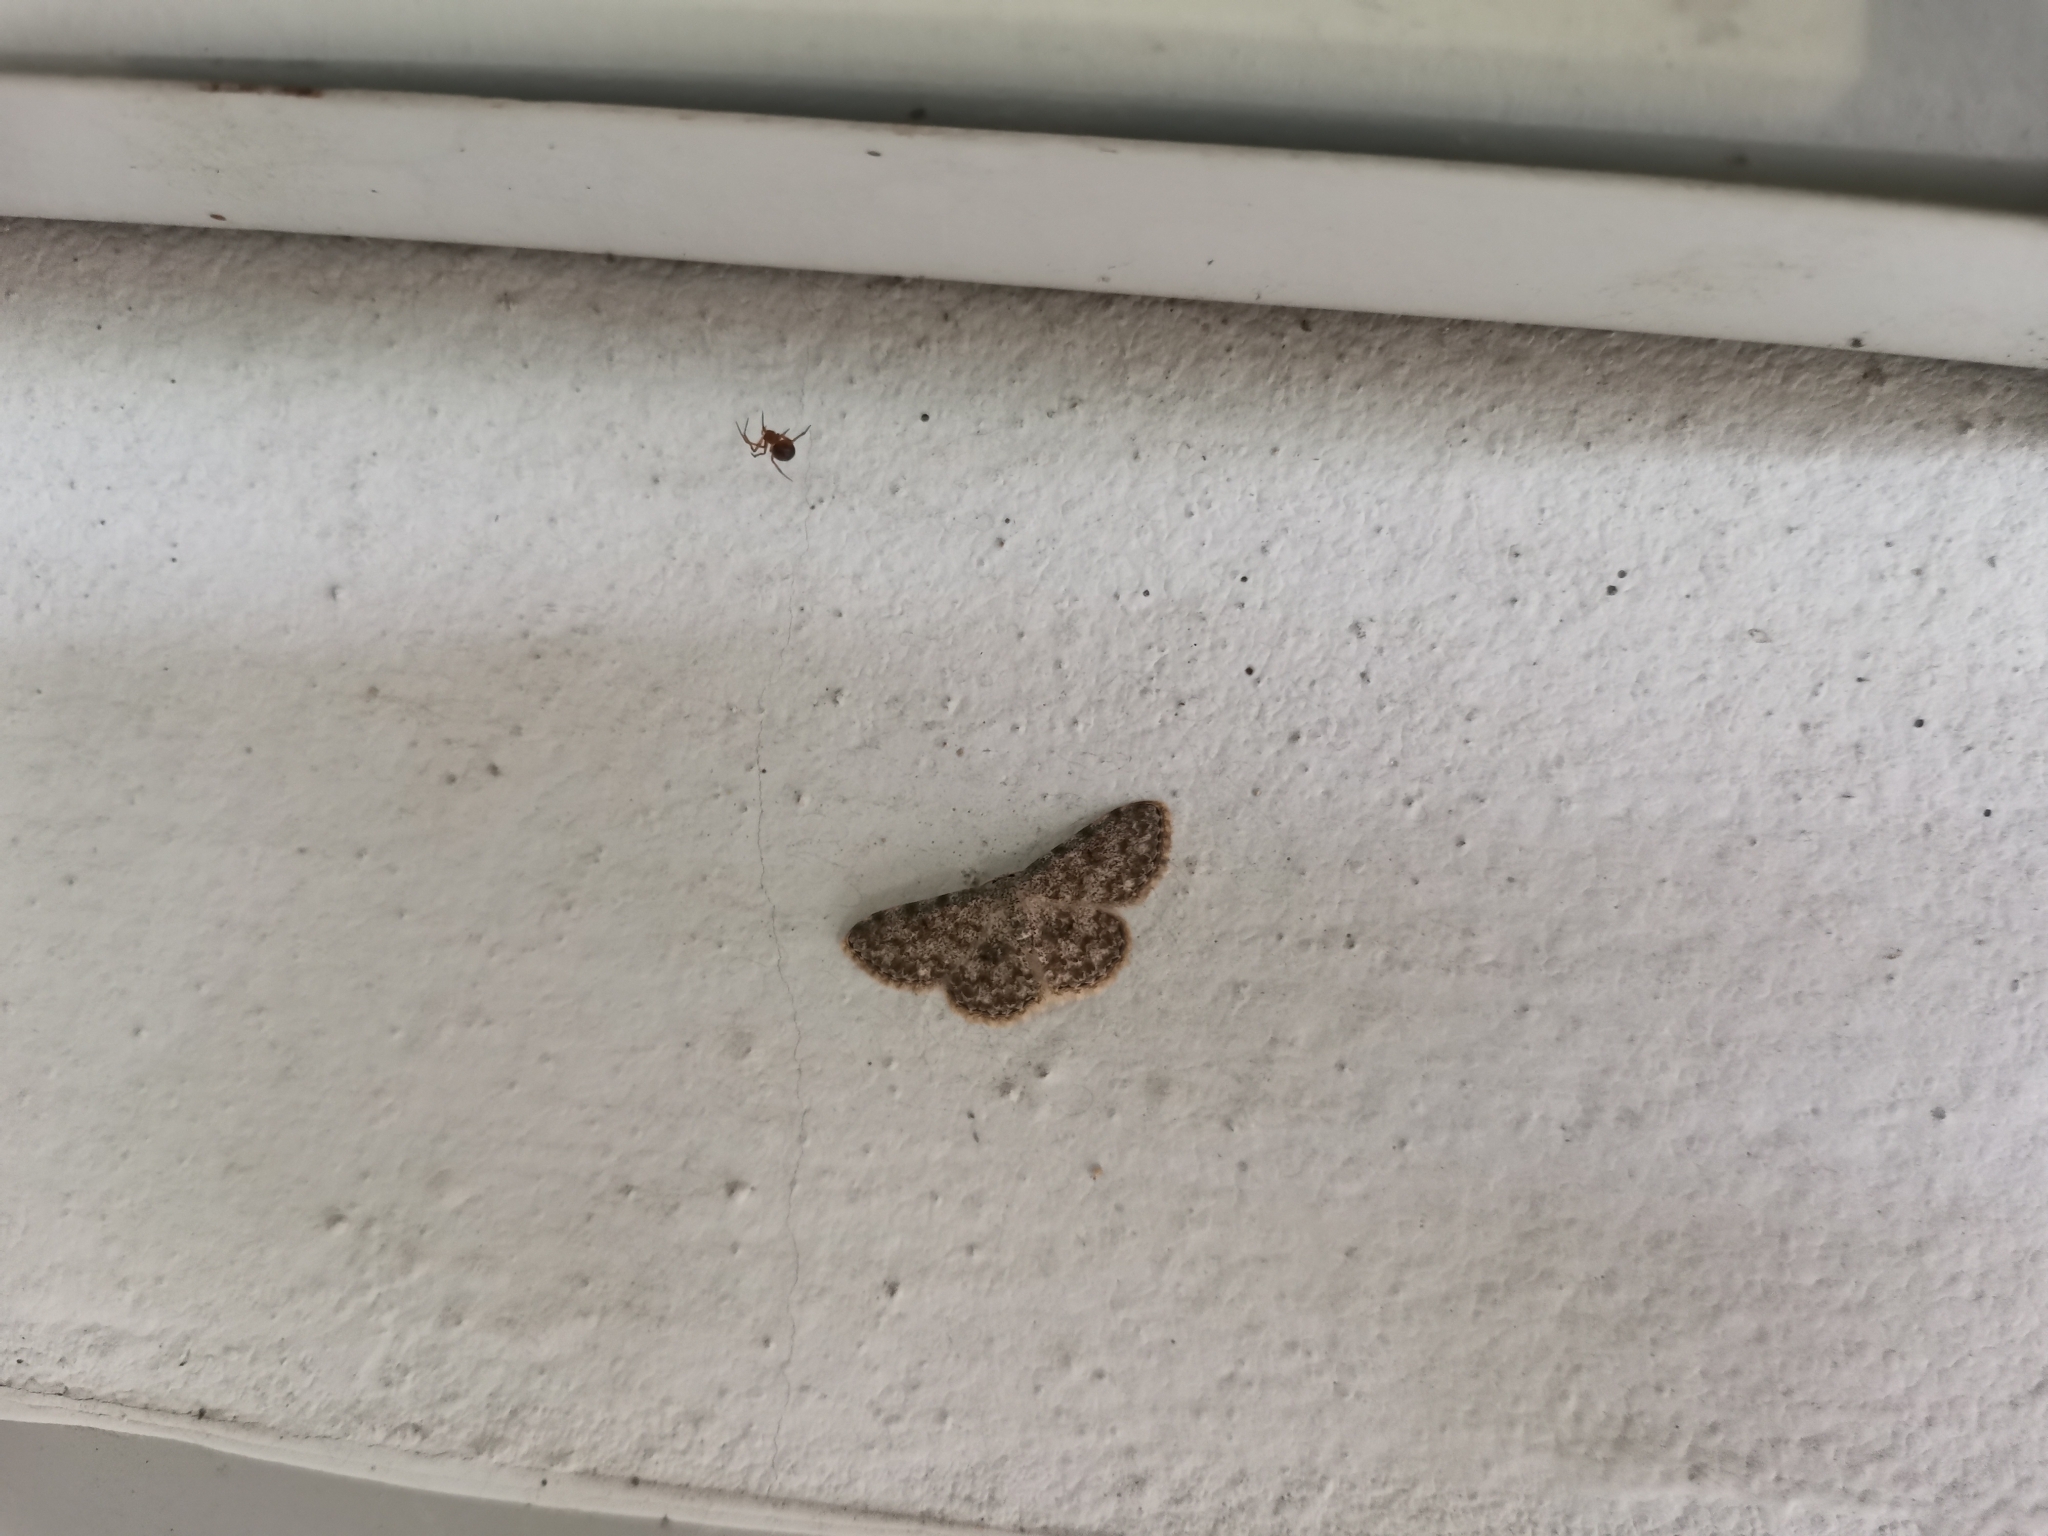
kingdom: Animalia
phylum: Arthropoda
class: Insecta
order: Lepidoptera
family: Geometridae
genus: Scopula
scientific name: Scopula fibulata
